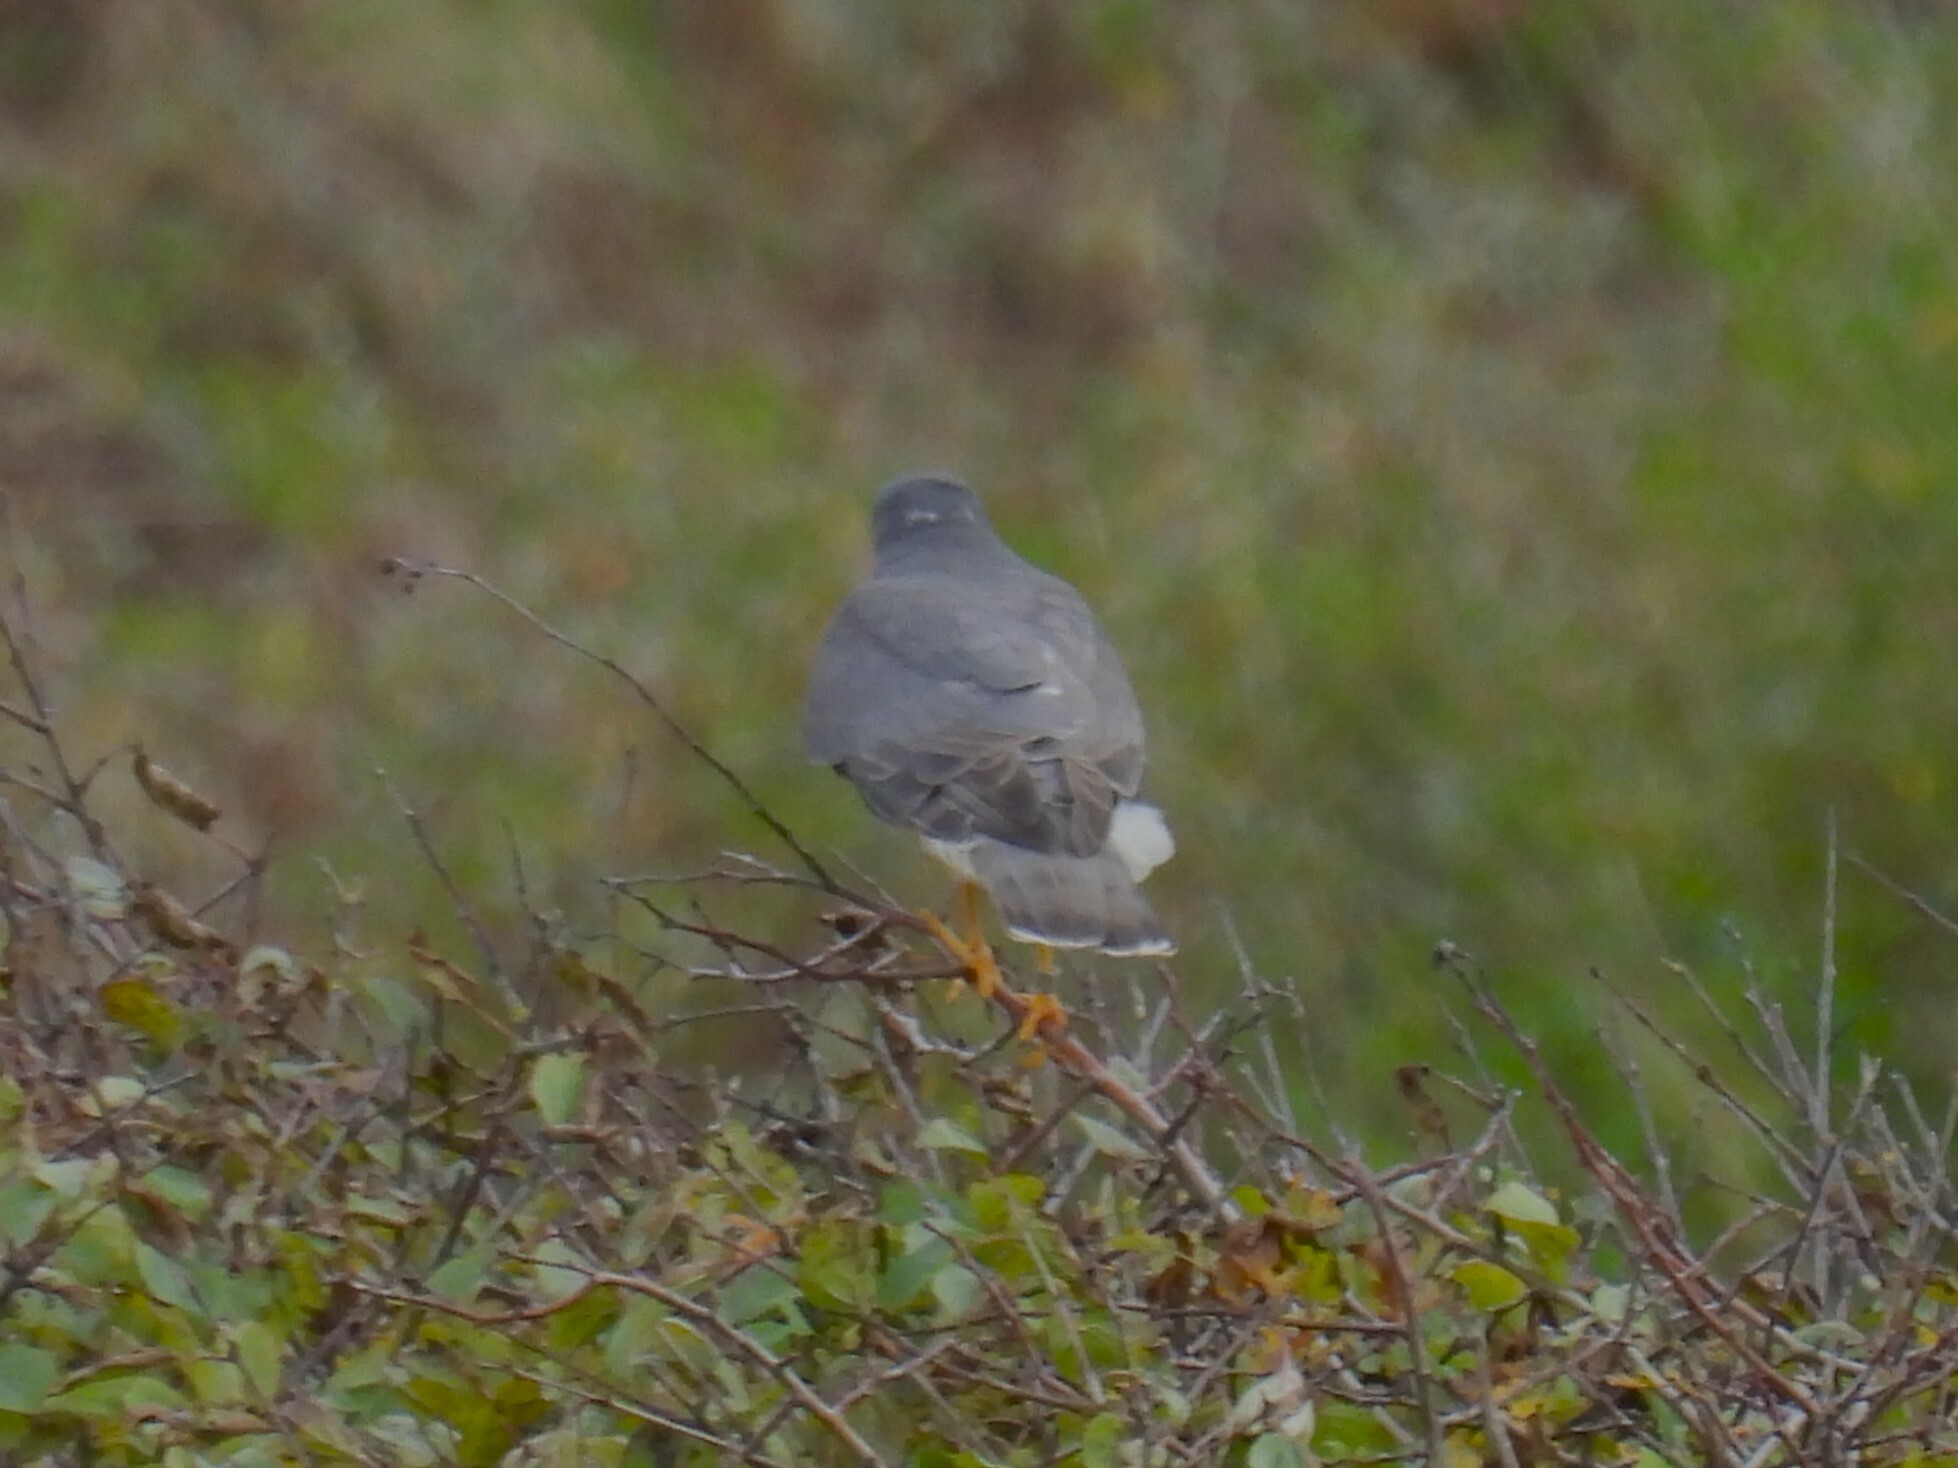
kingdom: Animalia
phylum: Chordata
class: Aves
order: Accipitriformes
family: Accipitridae
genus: Accipiter
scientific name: Accipiter nisus
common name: Eurasian sparrowhawk
